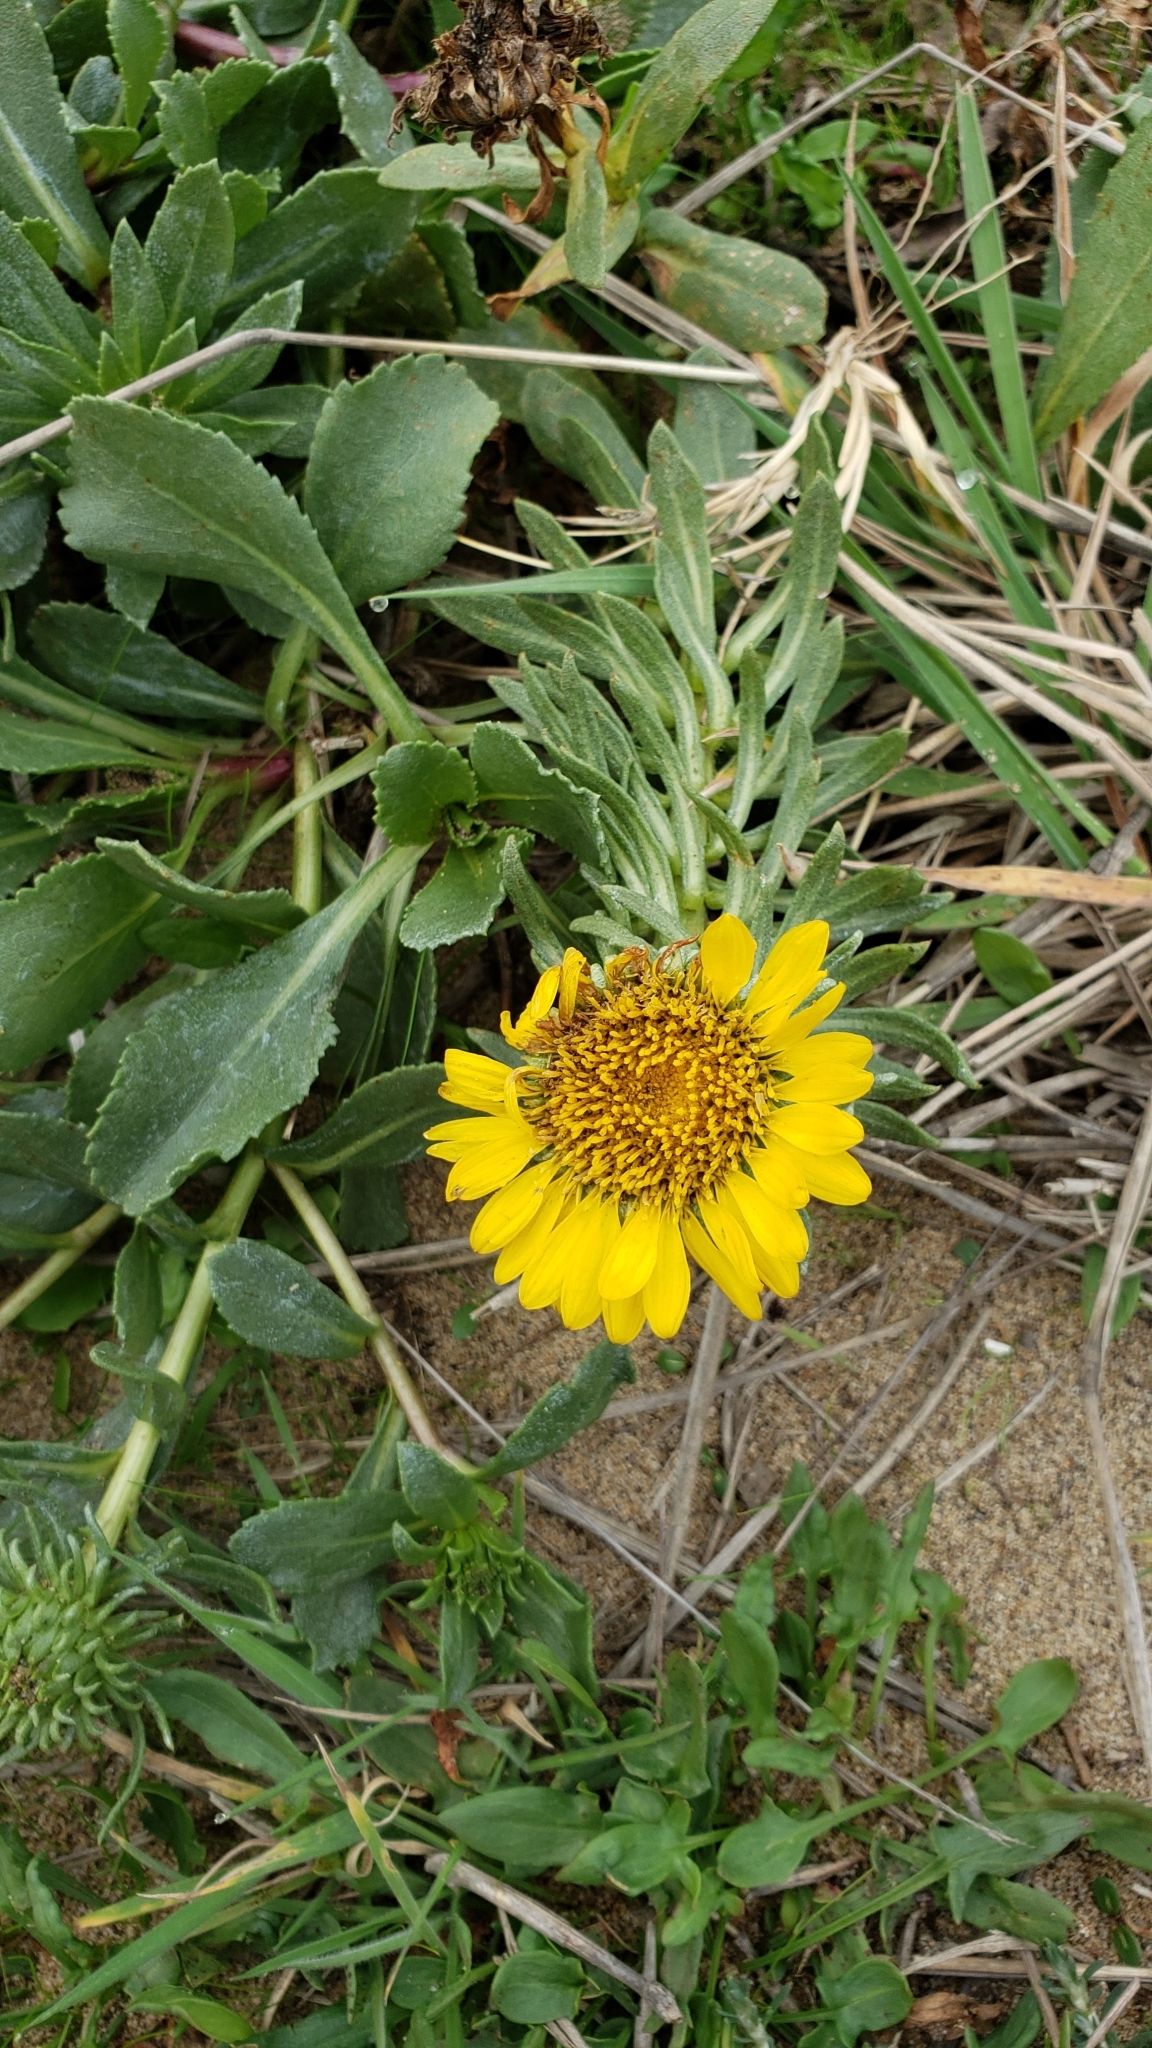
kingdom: Plantae
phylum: Tracheophyta
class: Magnoliopsida
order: Asterales
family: Asteraceae
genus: Grindelia
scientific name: Grindelia hirsutula
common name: Hairy gumweed
